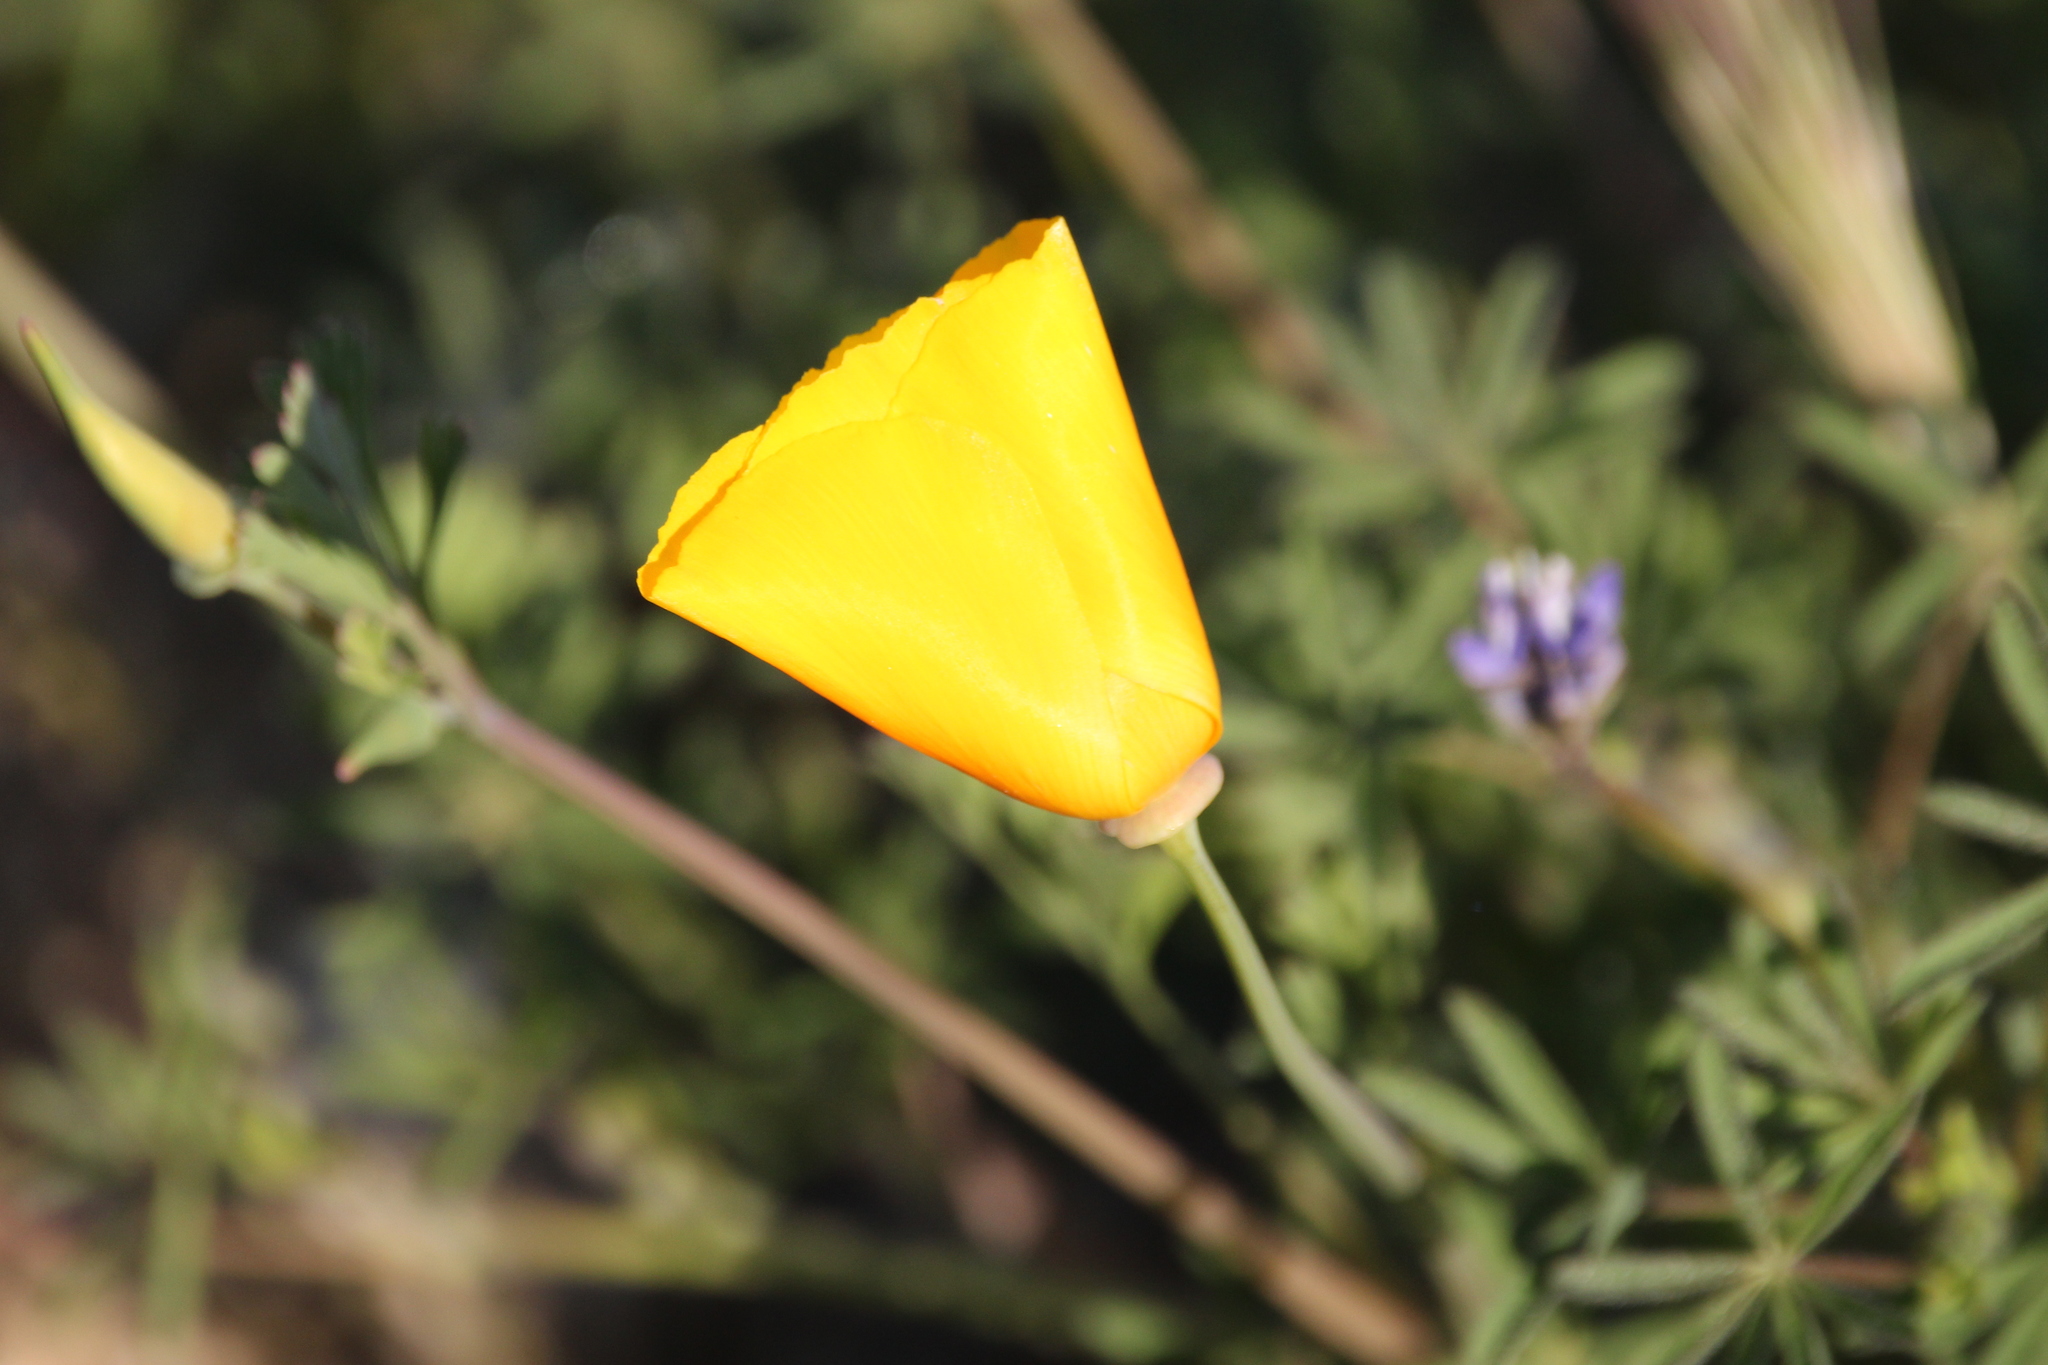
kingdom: Plantae
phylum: Tracheophyta
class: Magnoliopsida
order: Ranunculales
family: Papaveraceae
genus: Eschscholzia
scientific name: Eschscholzia californica
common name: California poppy
